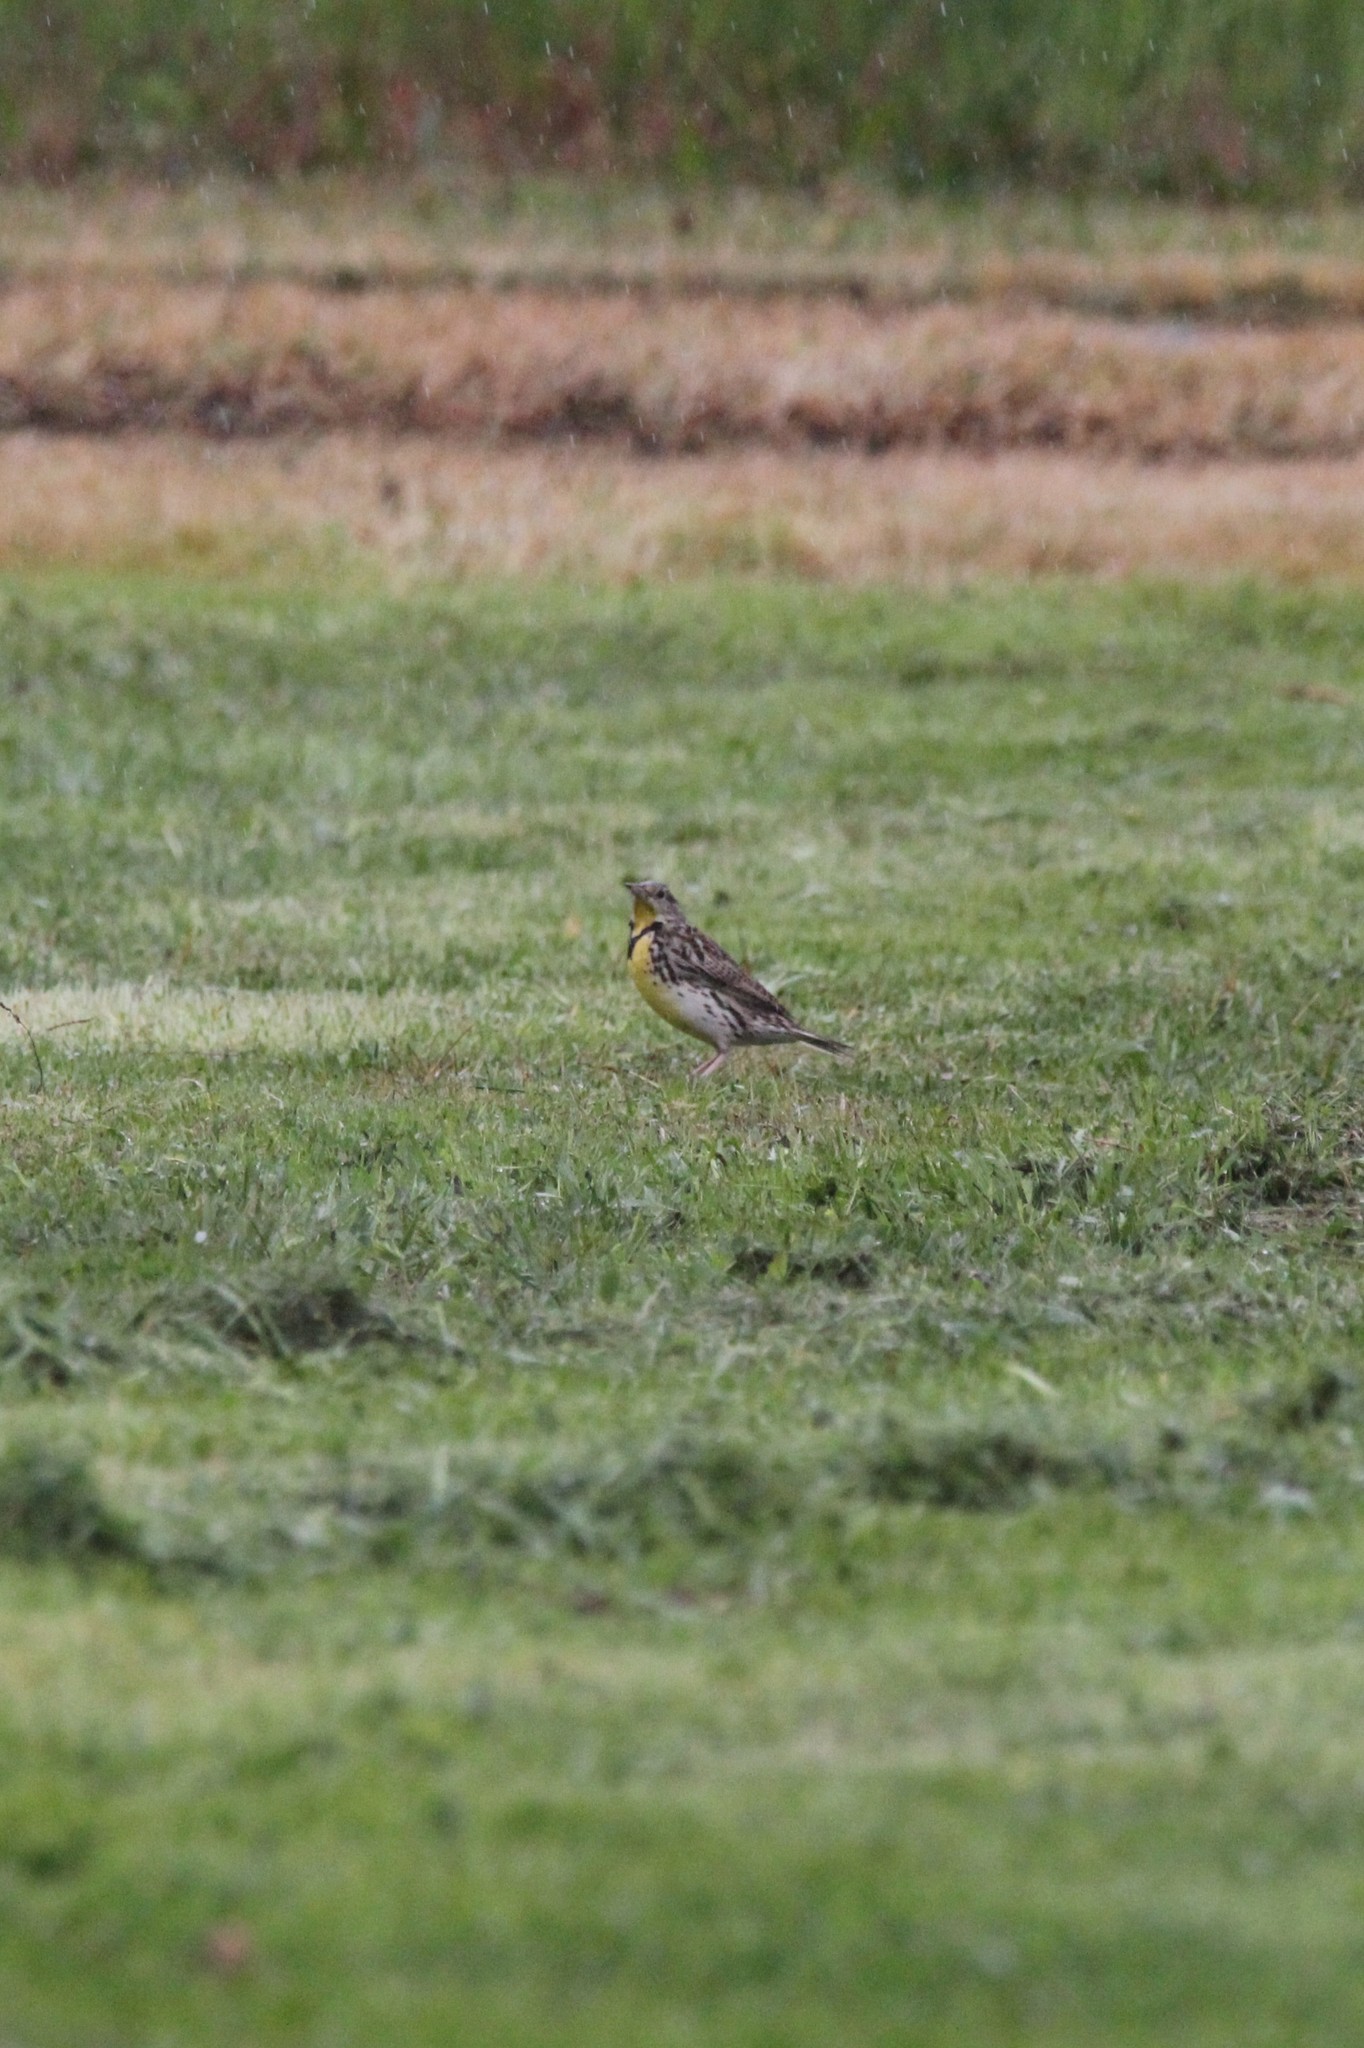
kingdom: Animalia
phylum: Chordata
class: Aves
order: Passeriformes
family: Icteridae
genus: Sturnella
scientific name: Sturnella neglecta
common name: Western meadowlark
